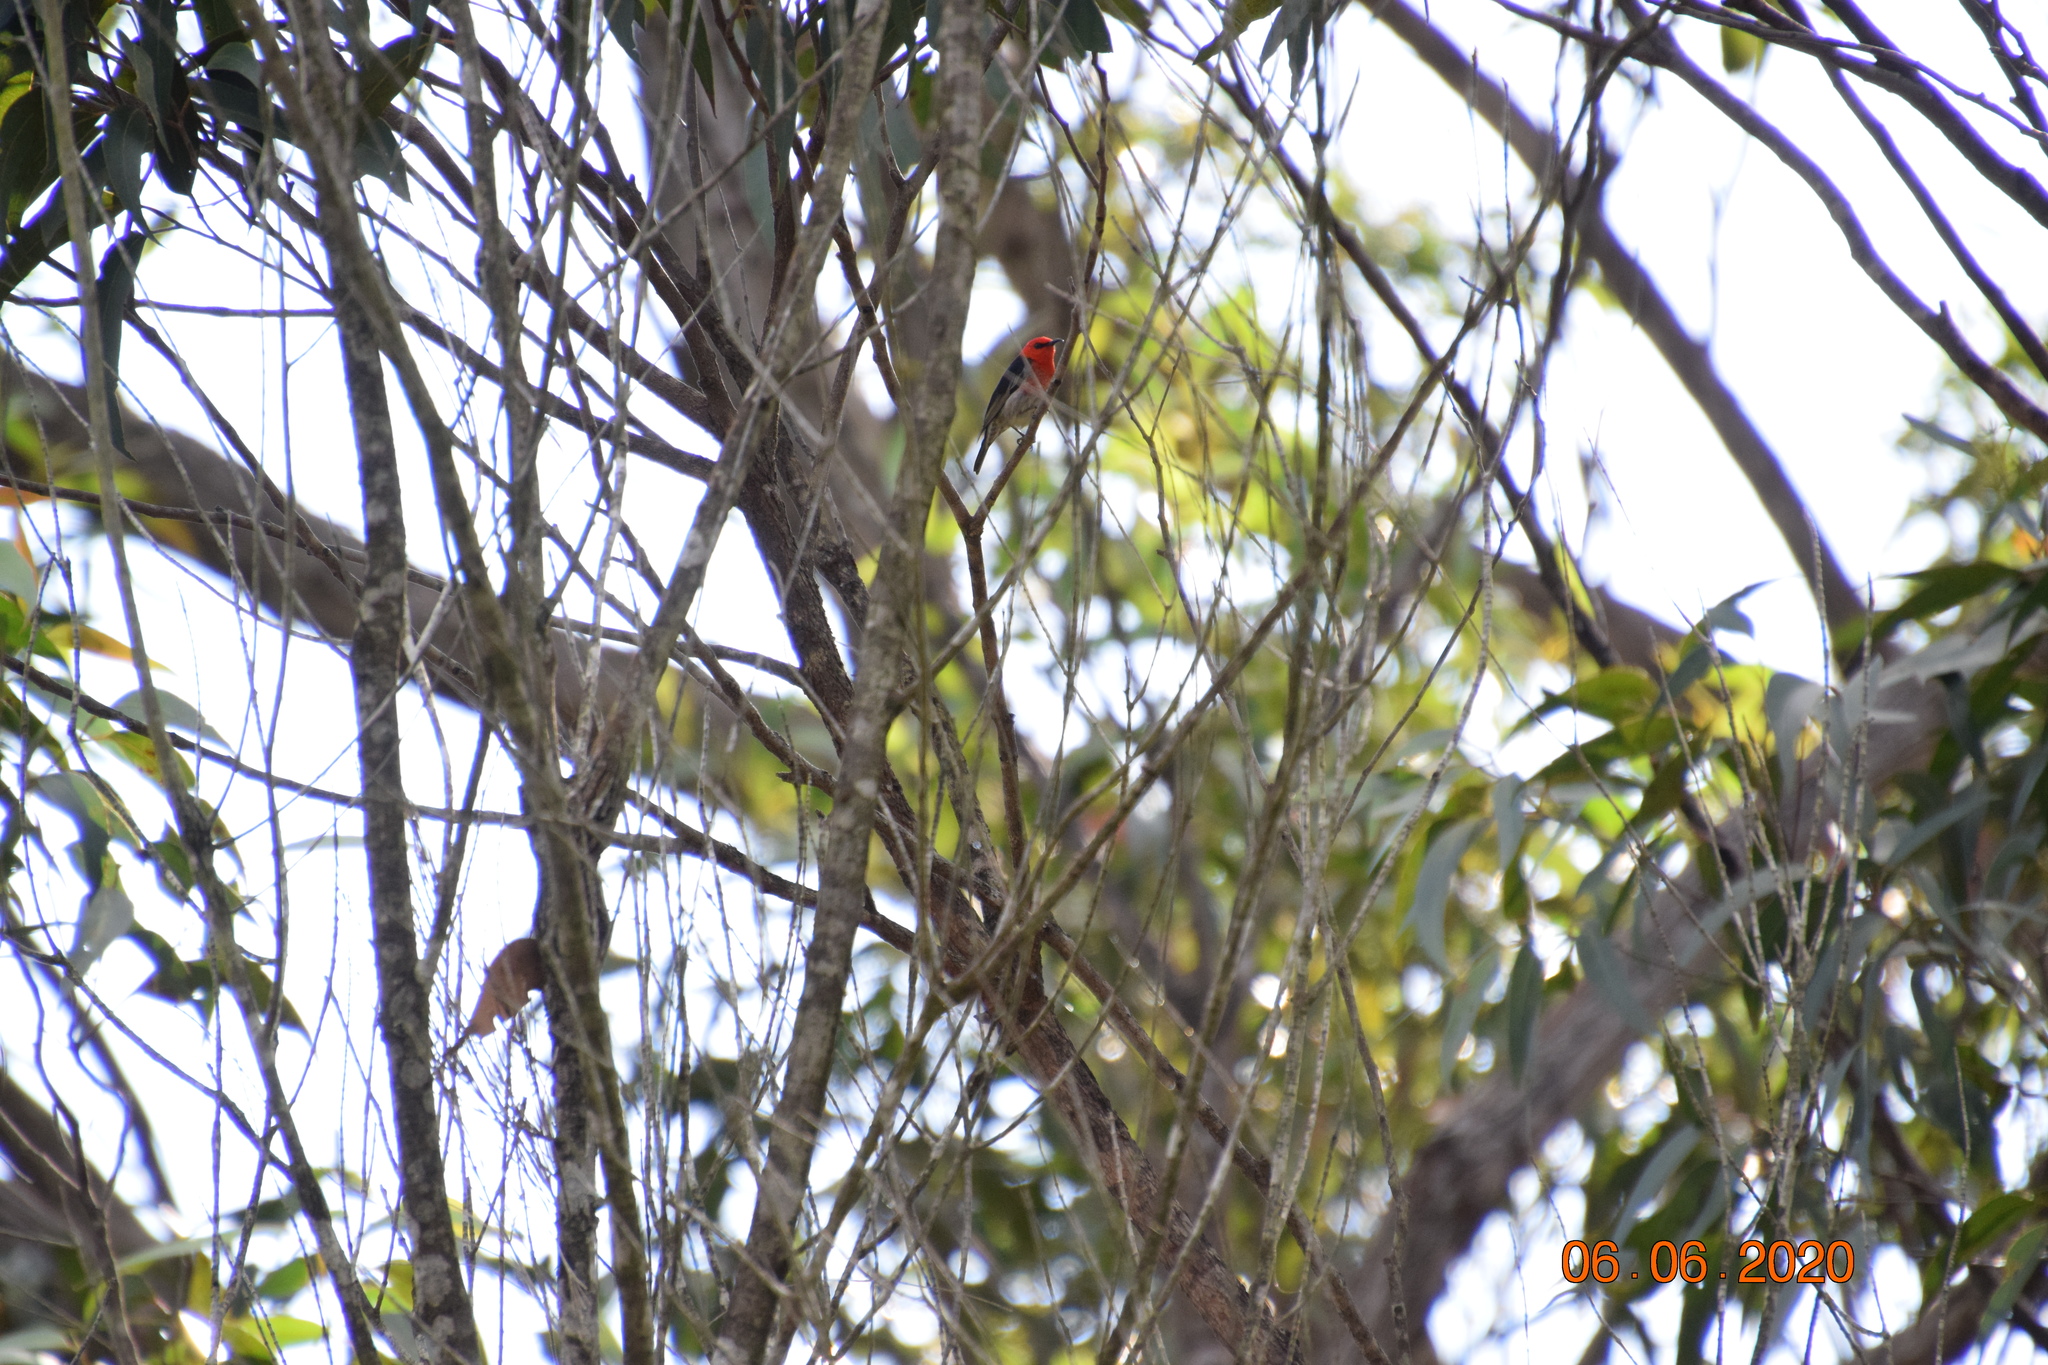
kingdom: Animalia
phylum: Chordata
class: Aves
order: Passeriformes
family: Meliphagidae
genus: Myzomela
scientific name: Myzomela sanguinolenta
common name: Scarlet myzomela
